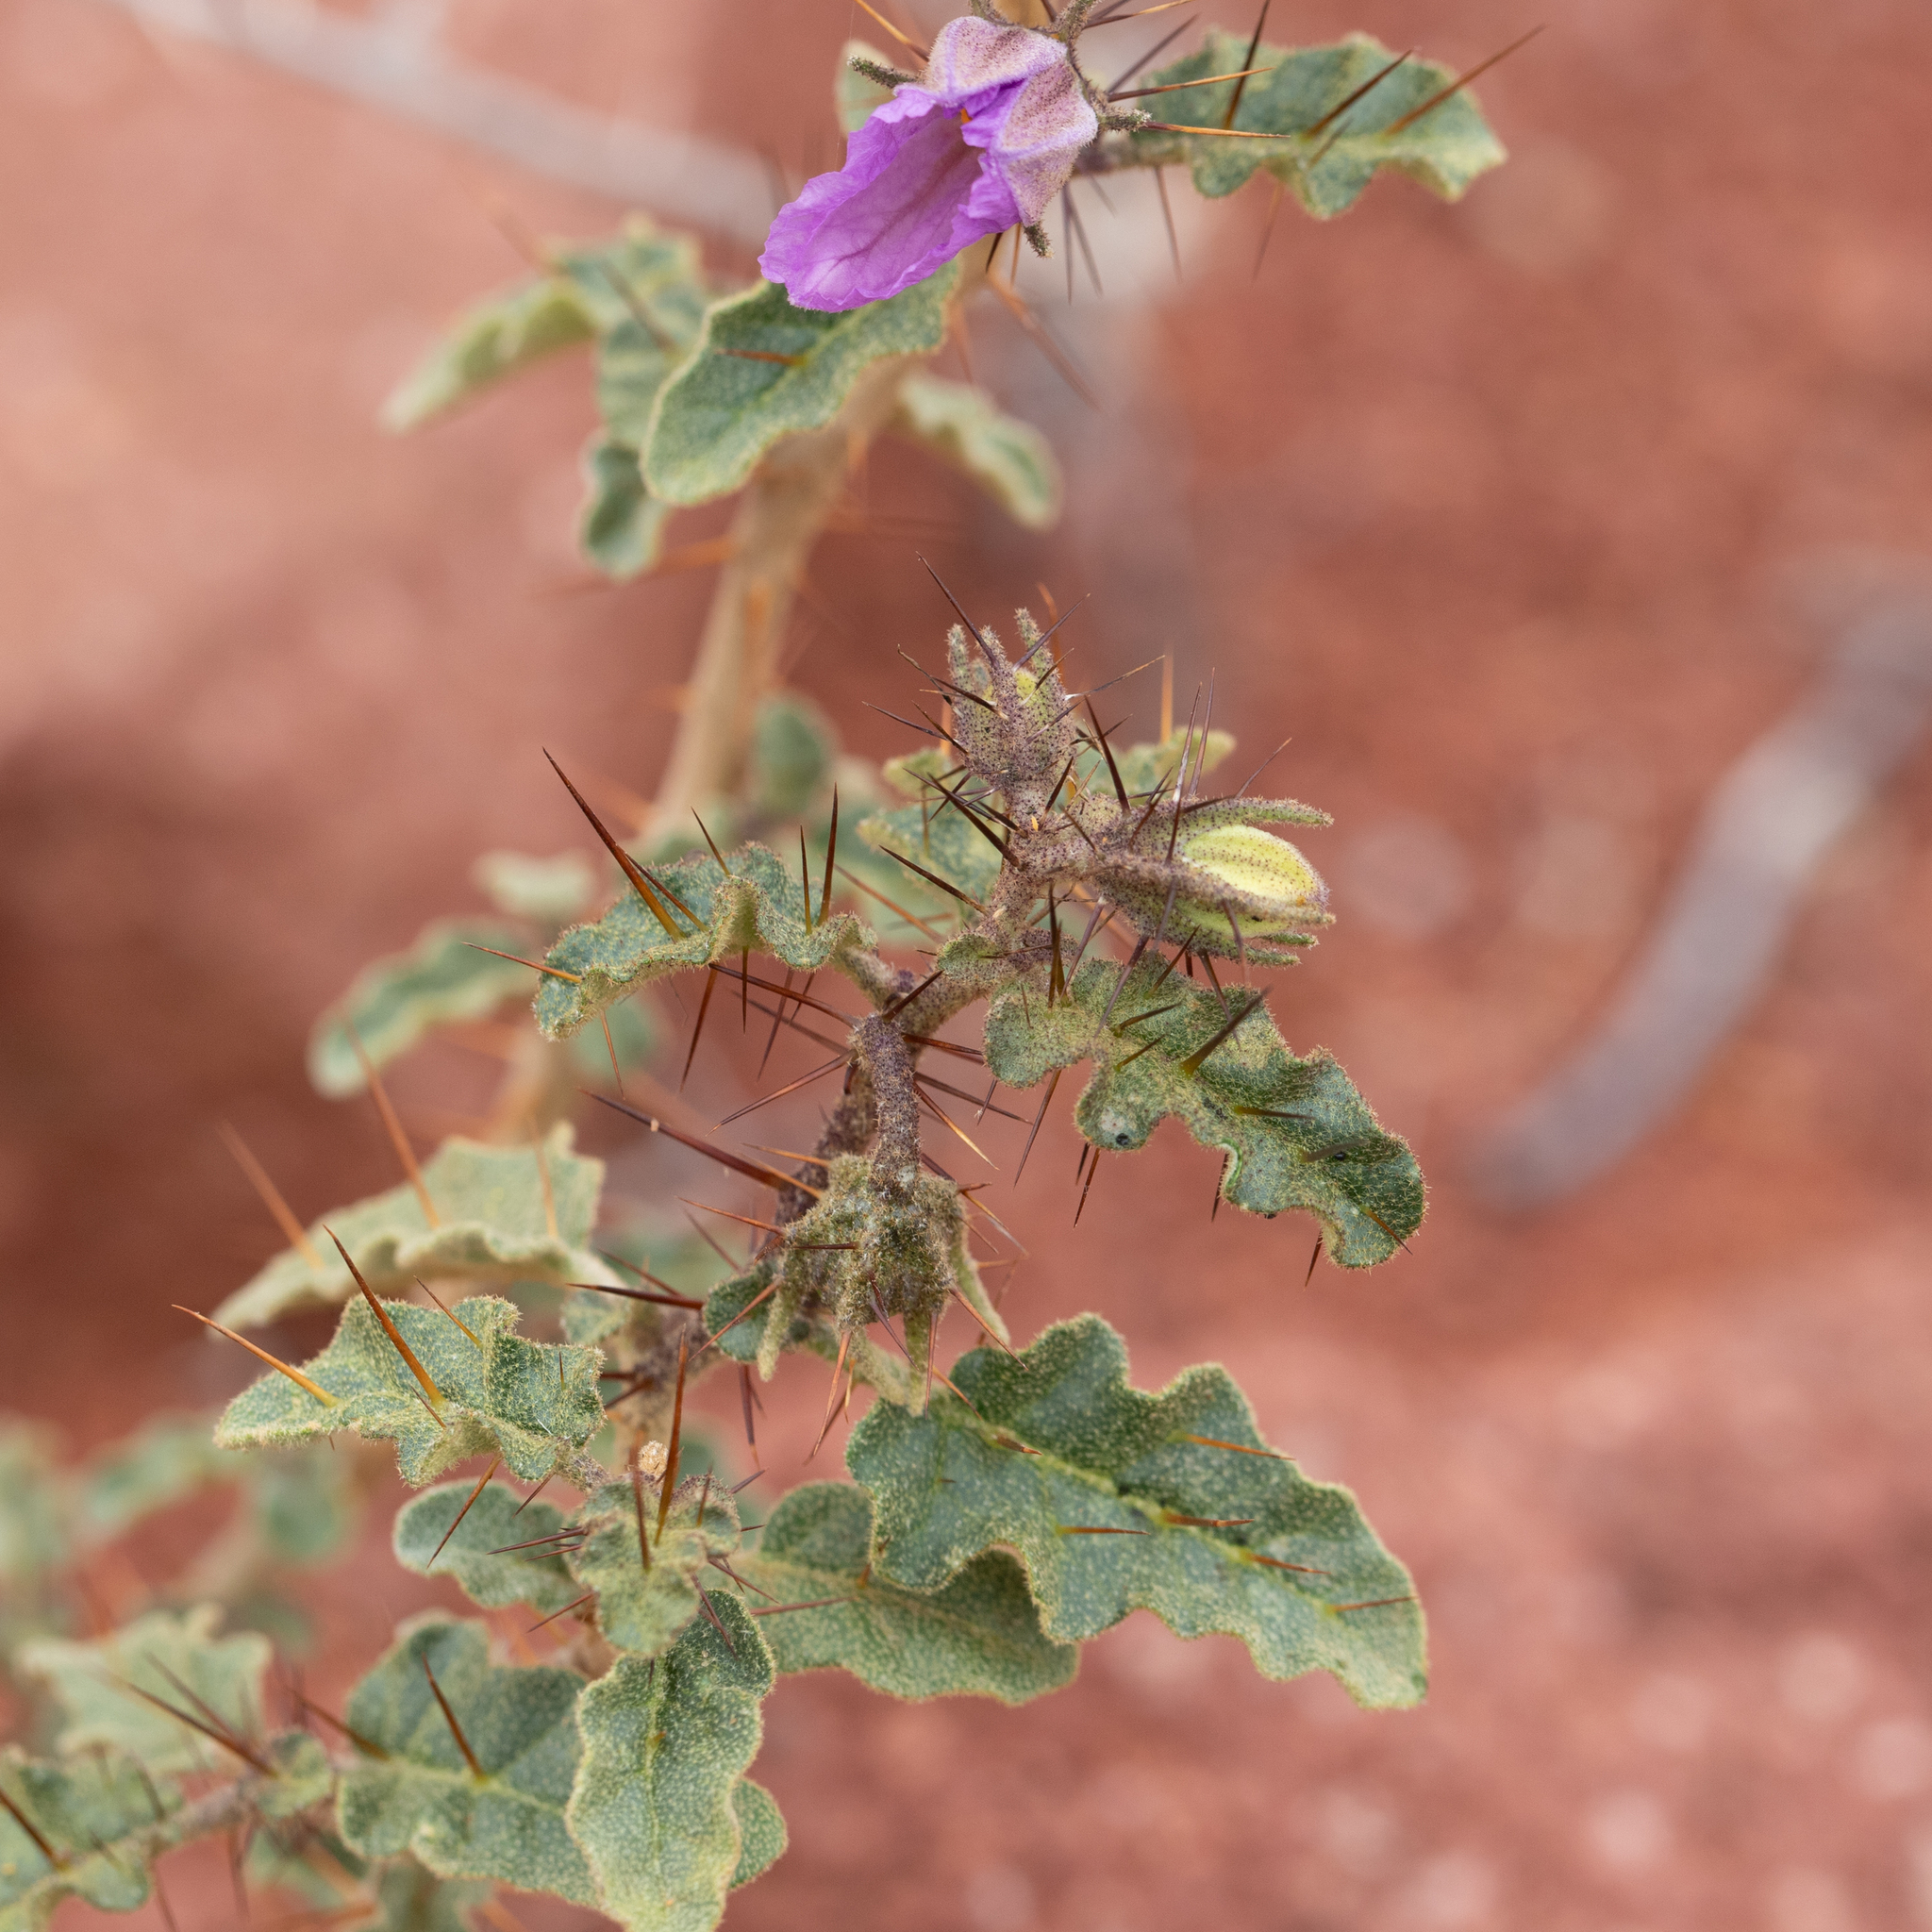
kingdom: Plantae
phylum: Tracheophyta
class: Magnoliopsida
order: Solanales
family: Solanaceae
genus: Solanum
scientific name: Solanum petrophilum
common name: Rock nightshade
